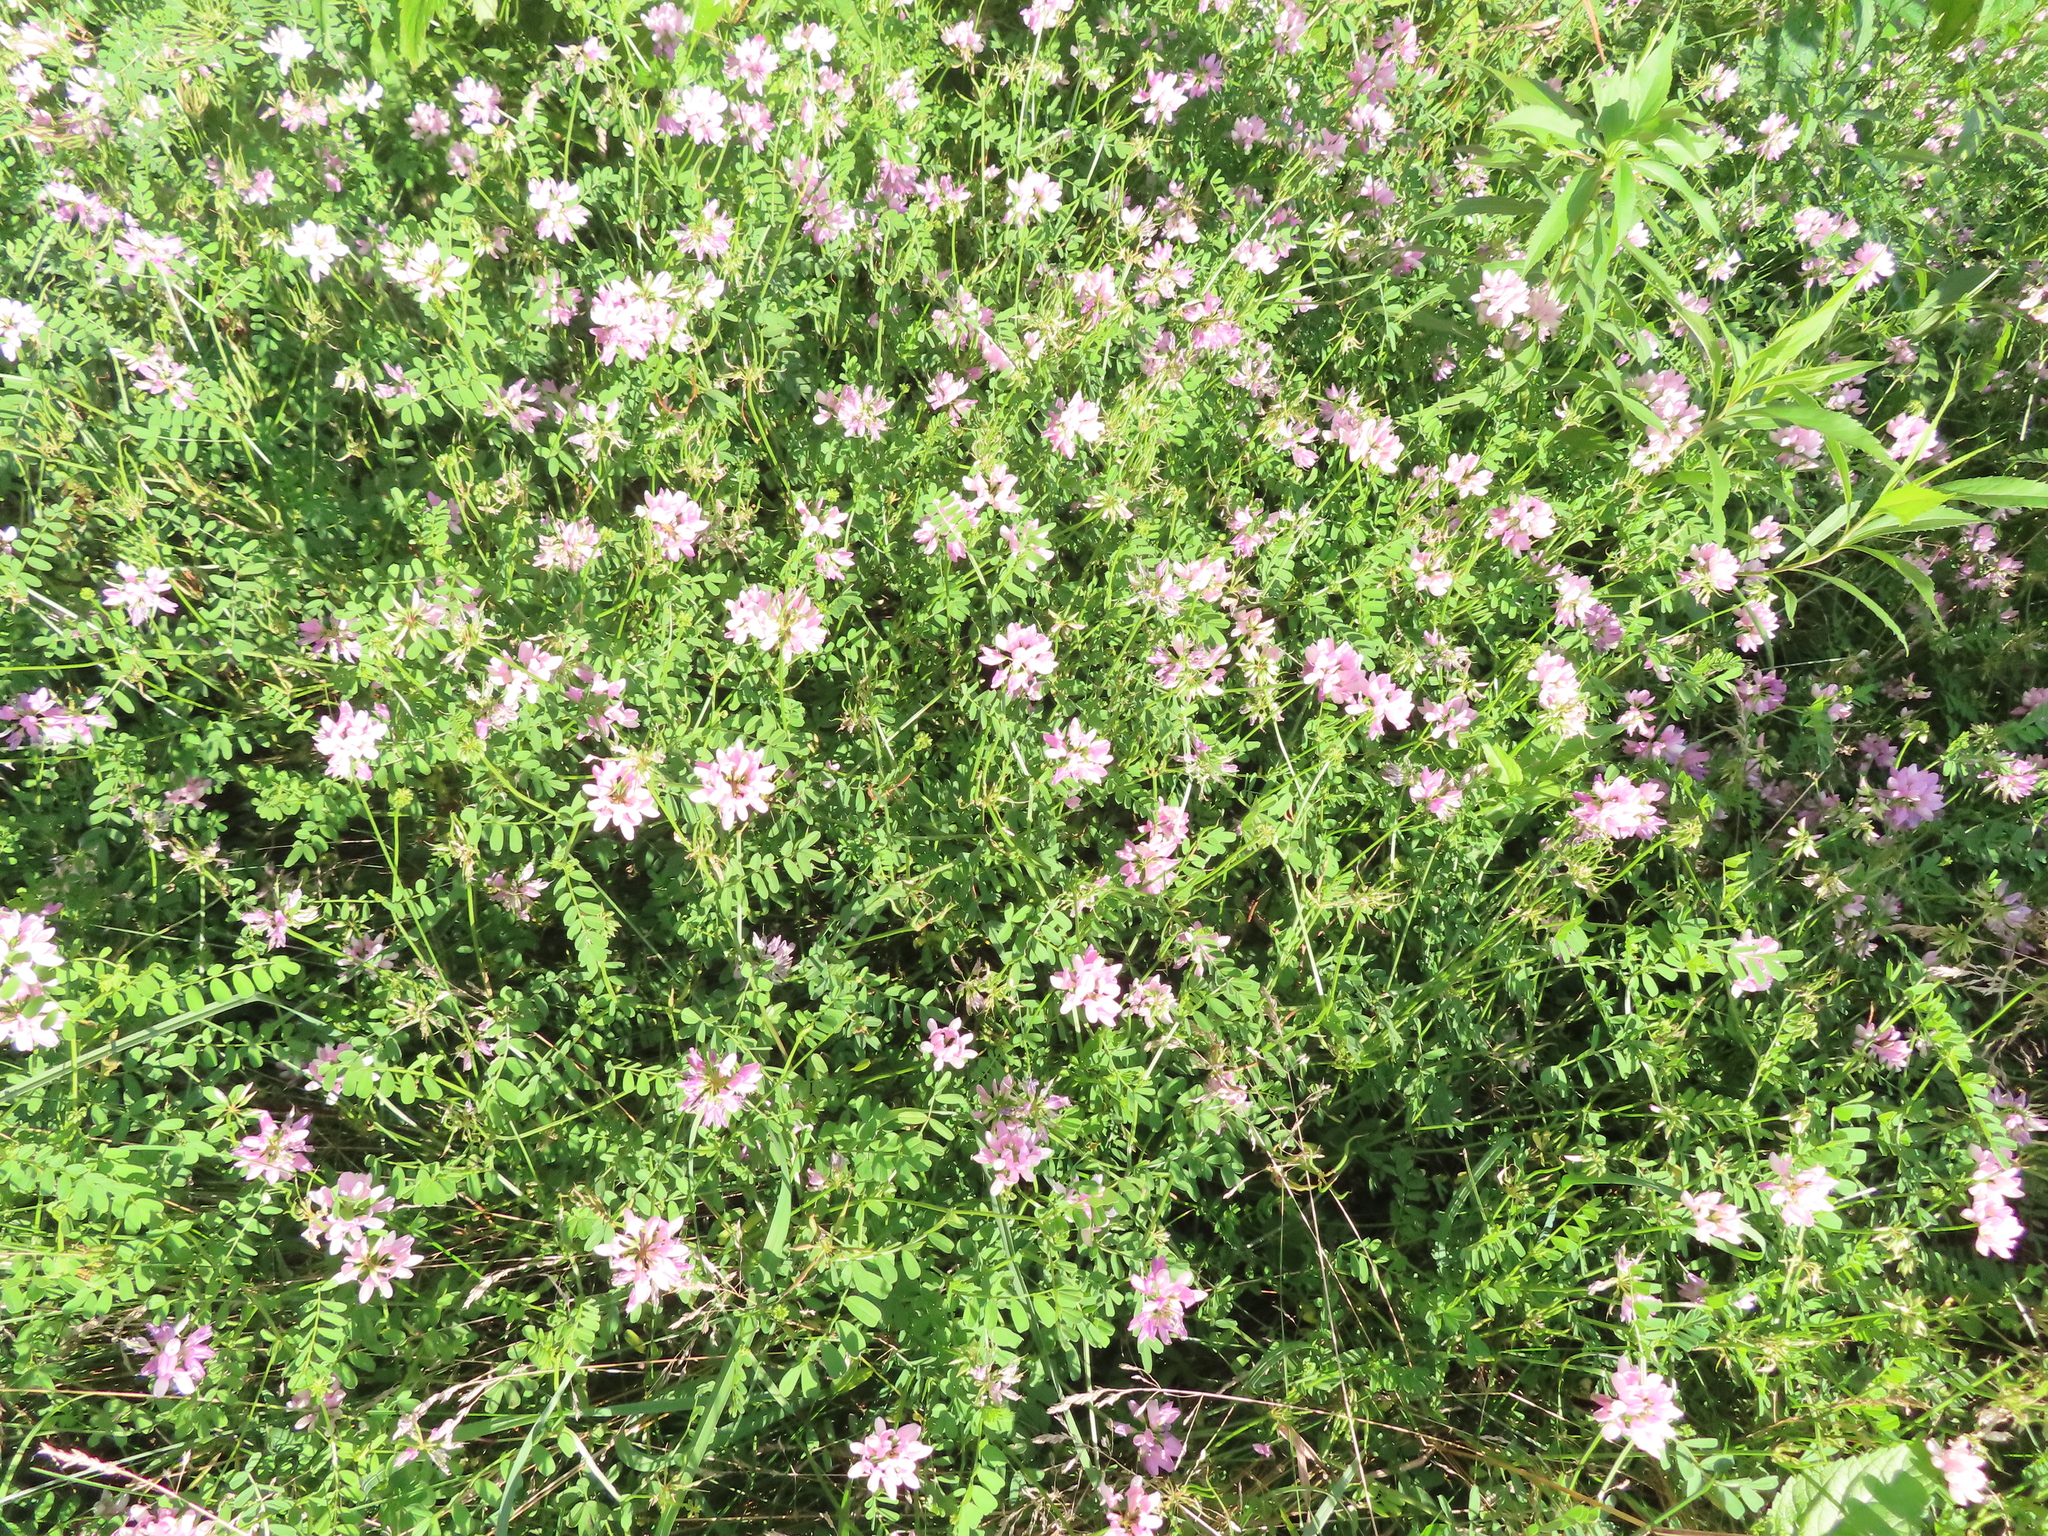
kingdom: Plantae
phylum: Tracheophyta
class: Magnoliopsida
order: Fabales
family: Fabaceae
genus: Coronilla
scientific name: Coronilla varia
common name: Crownvetch
